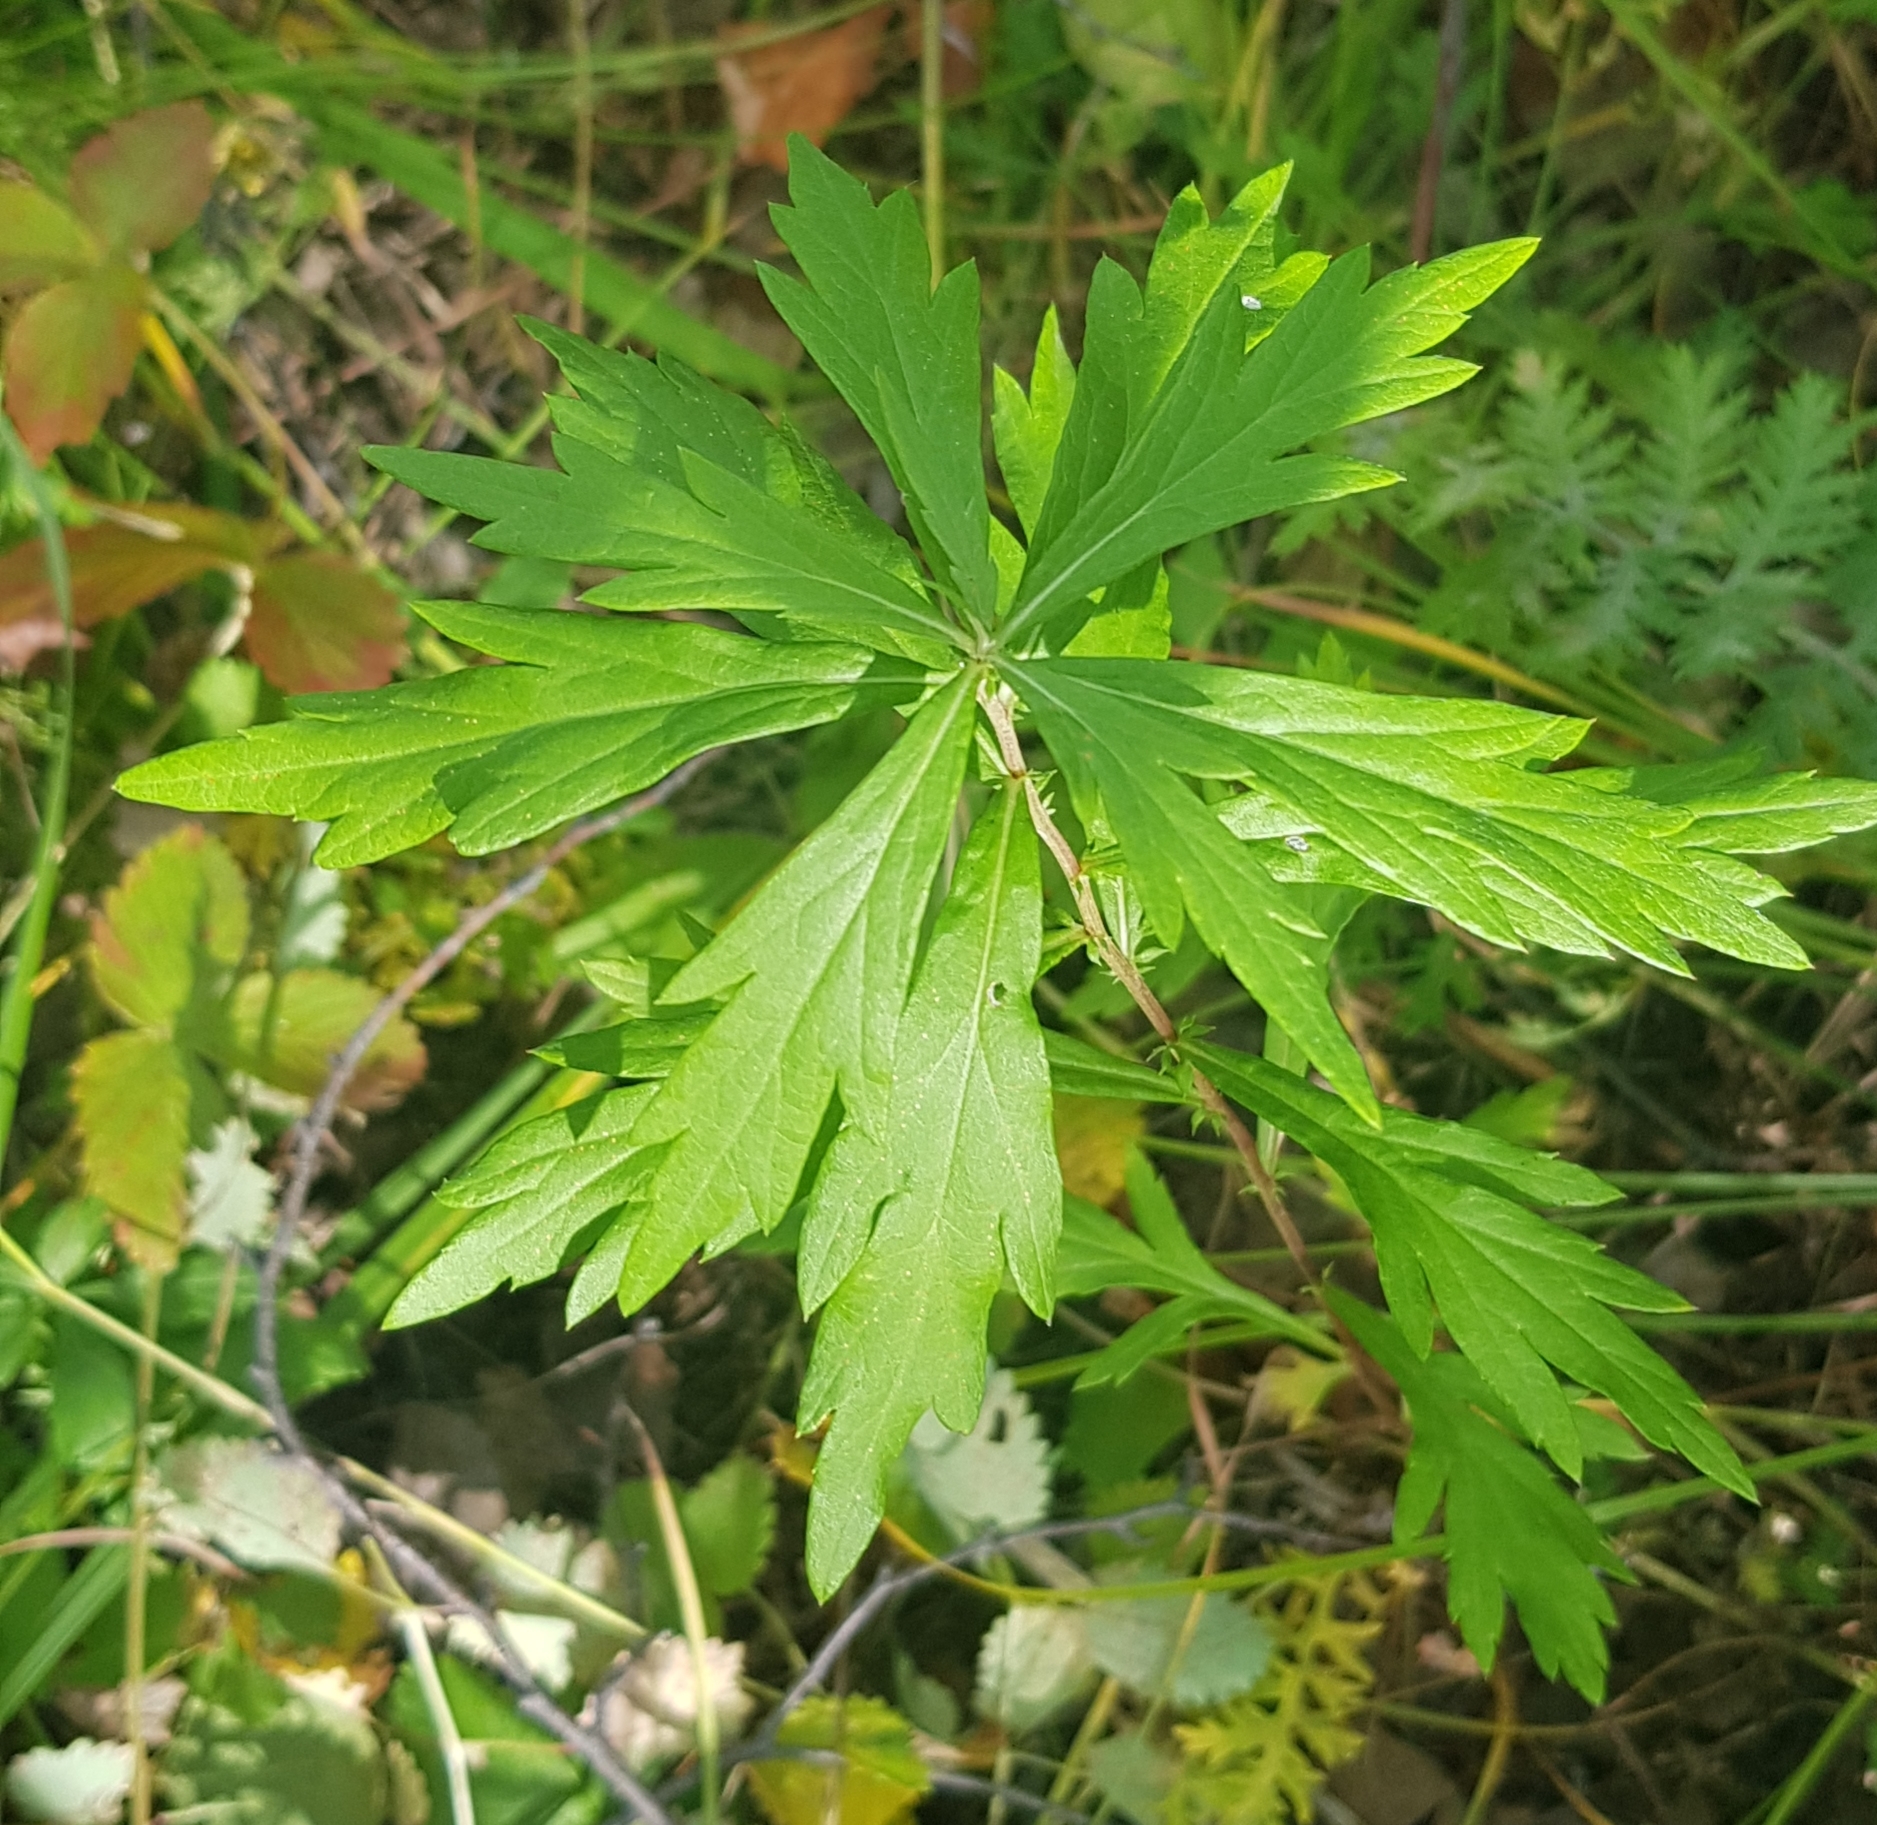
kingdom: Plantae
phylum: Tracheophyta
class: Magnoliopsida
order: Asterales
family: Asteraceae
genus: Artemisia
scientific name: Artemisia integrifolia
